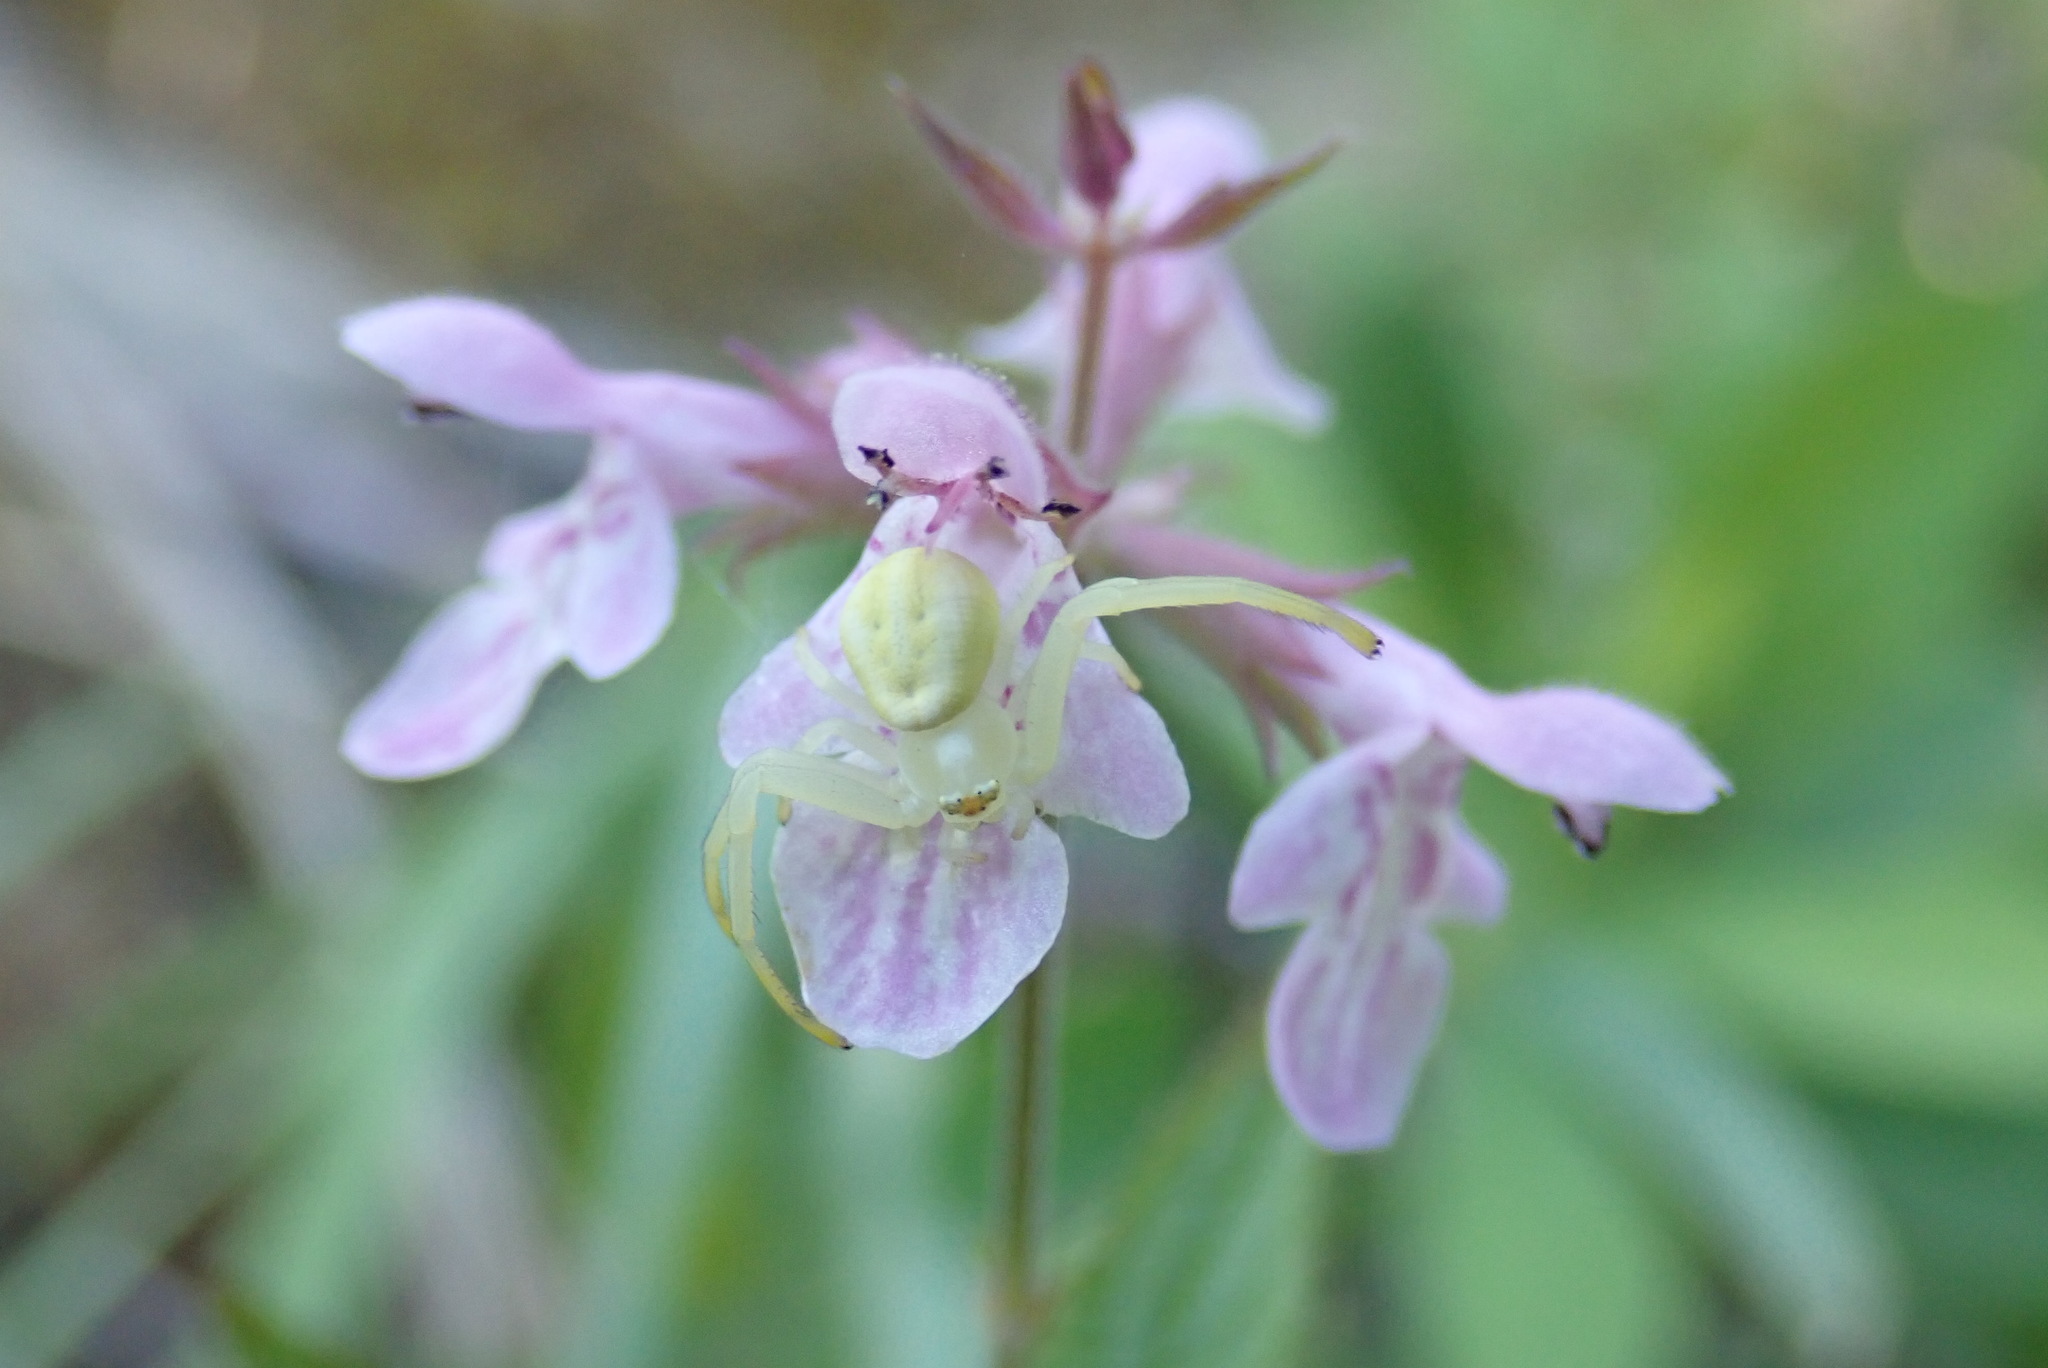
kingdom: Animalia
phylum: Arthropoda
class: Arachnida
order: Araneae
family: Thomisidae
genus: Misumena
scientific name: Misumena vatia
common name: Goldenrod crab spider
